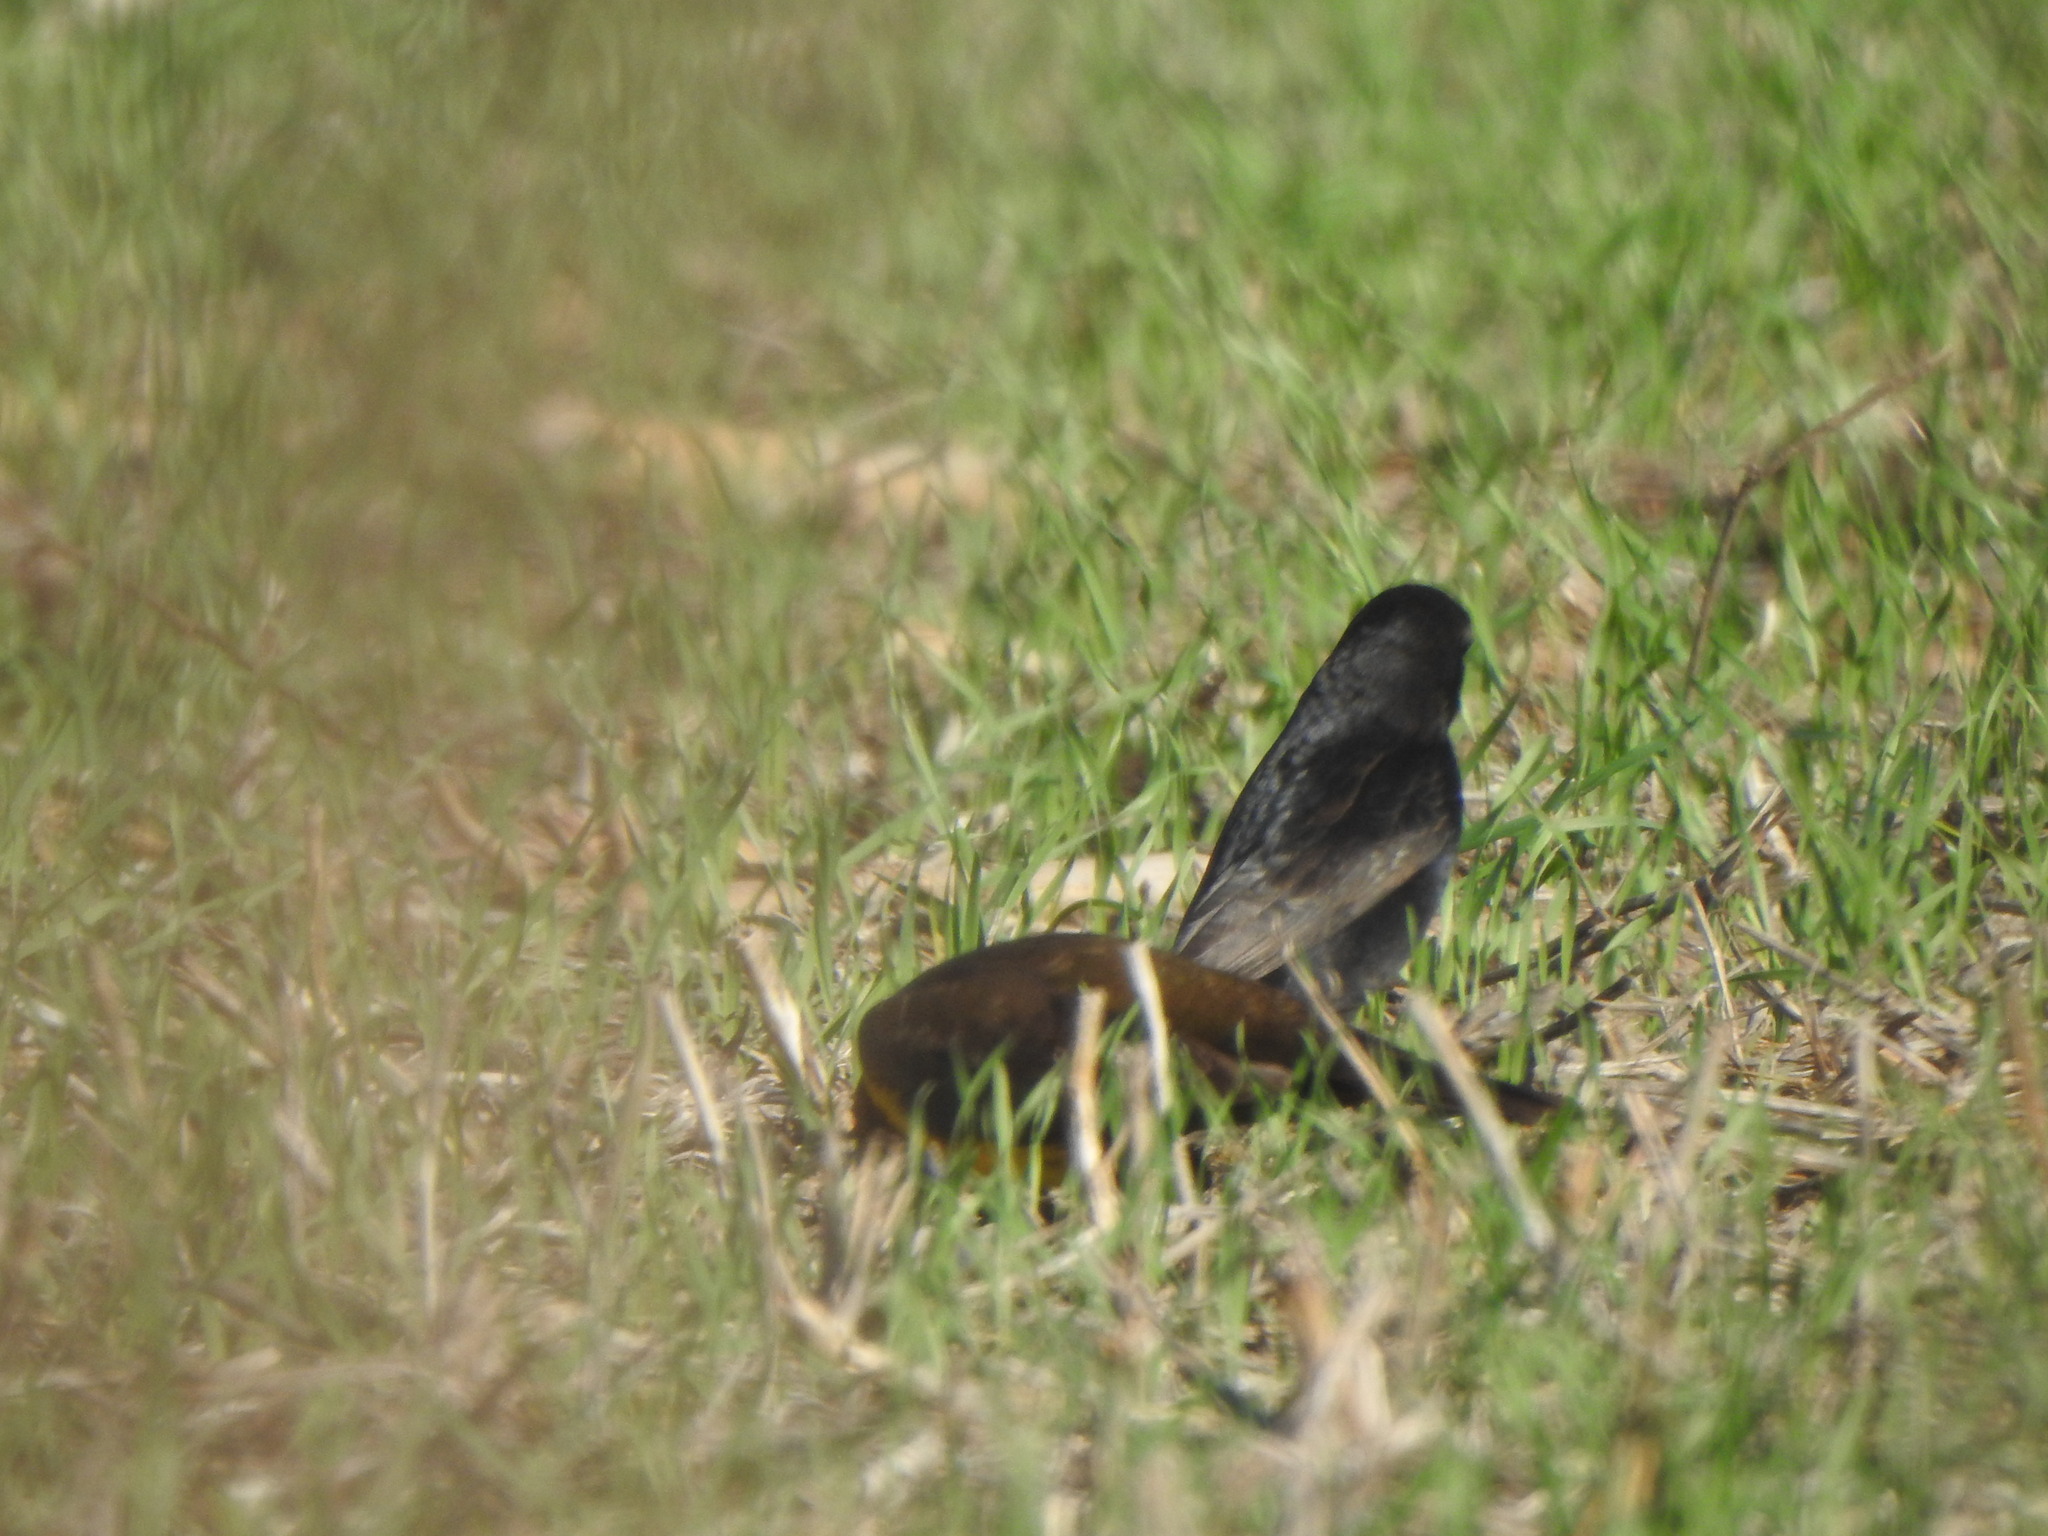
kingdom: Animalia
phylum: Chordata
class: Aves
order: Passeriformes
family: Icteridae
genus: Molothrus
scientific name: Molothrus bonariensis
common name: Shiny cowbird
